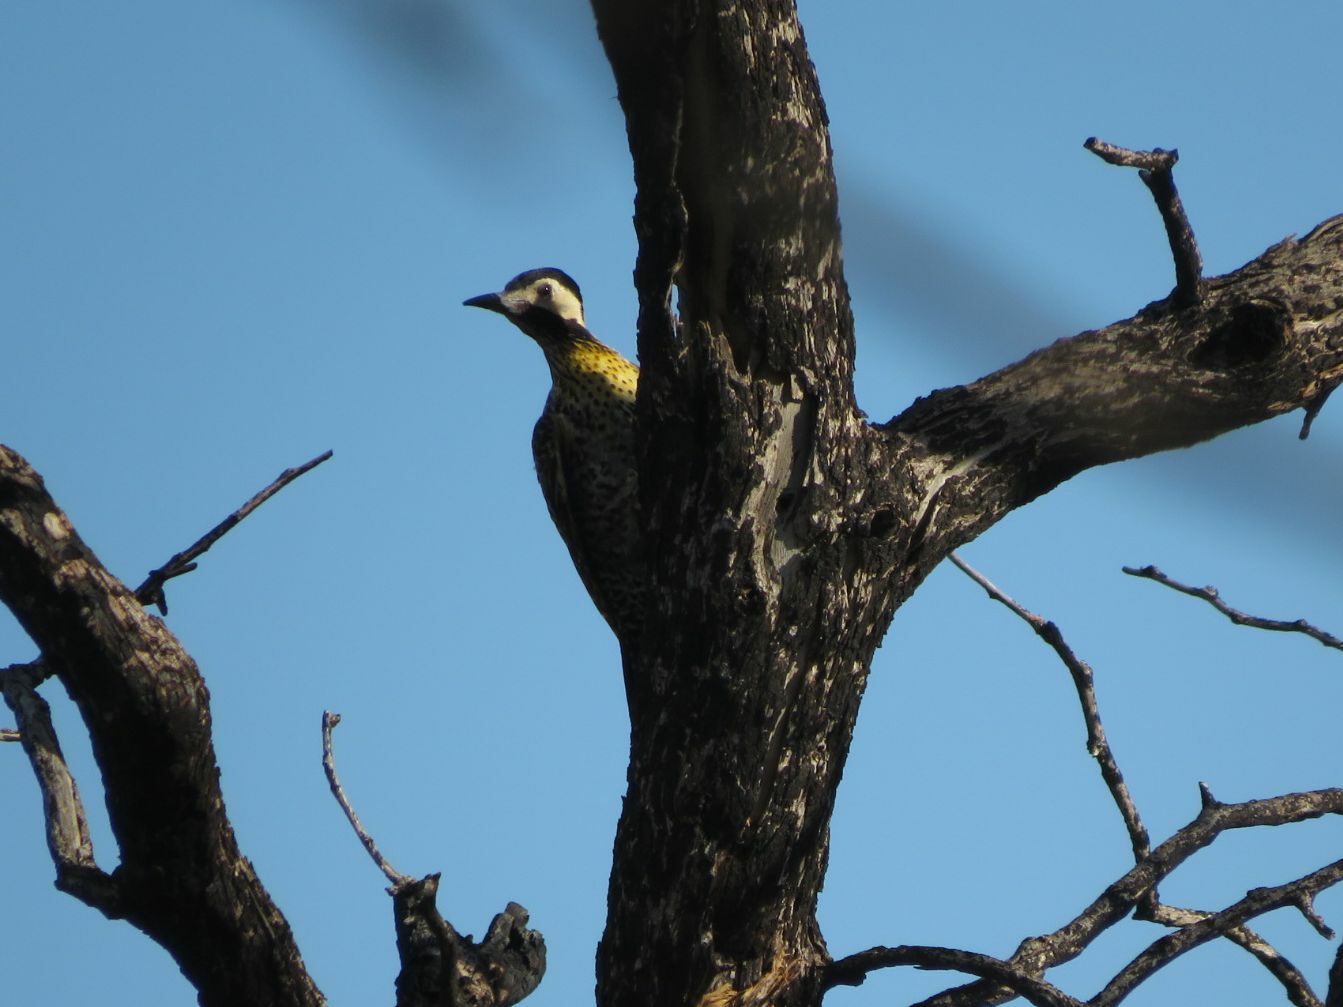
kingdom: Animalia
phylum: Chordata
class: Aves
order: Piciformes
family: Picidae
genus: Colaptes
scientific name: Colaptes melanochloros
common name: Green-barred woodpecker
